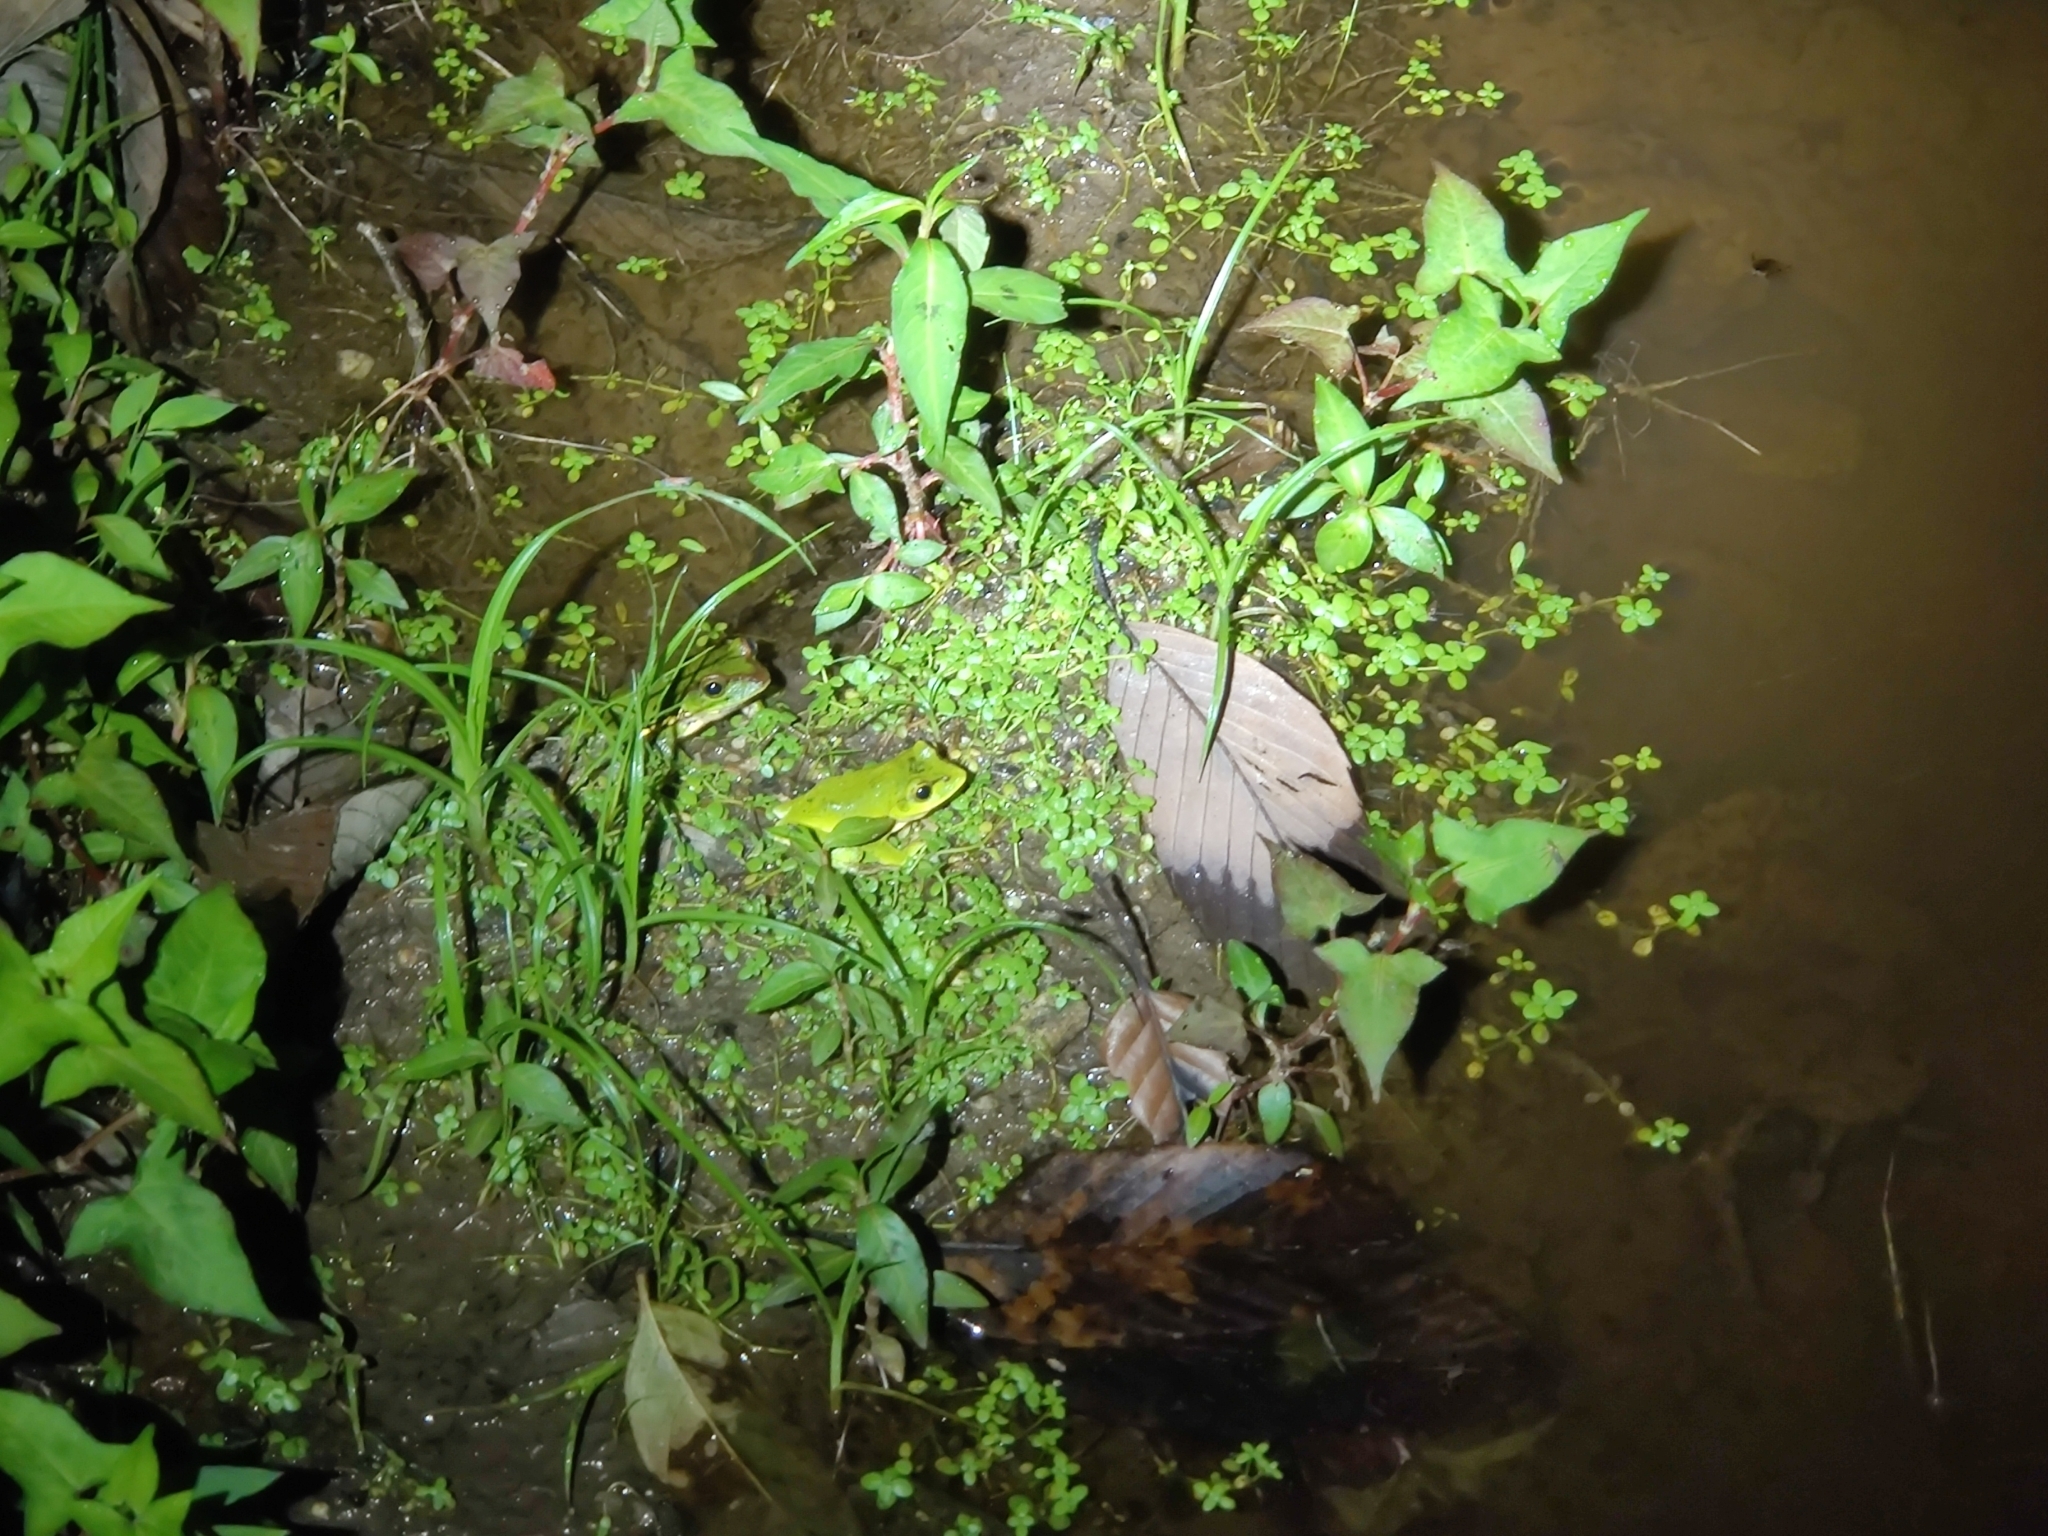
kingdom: Animalia
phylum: Chordata
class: Amphibia
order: Anura
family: Rhacophoridae
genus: Zhangixalus
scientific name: Zhangixalus burmanus
